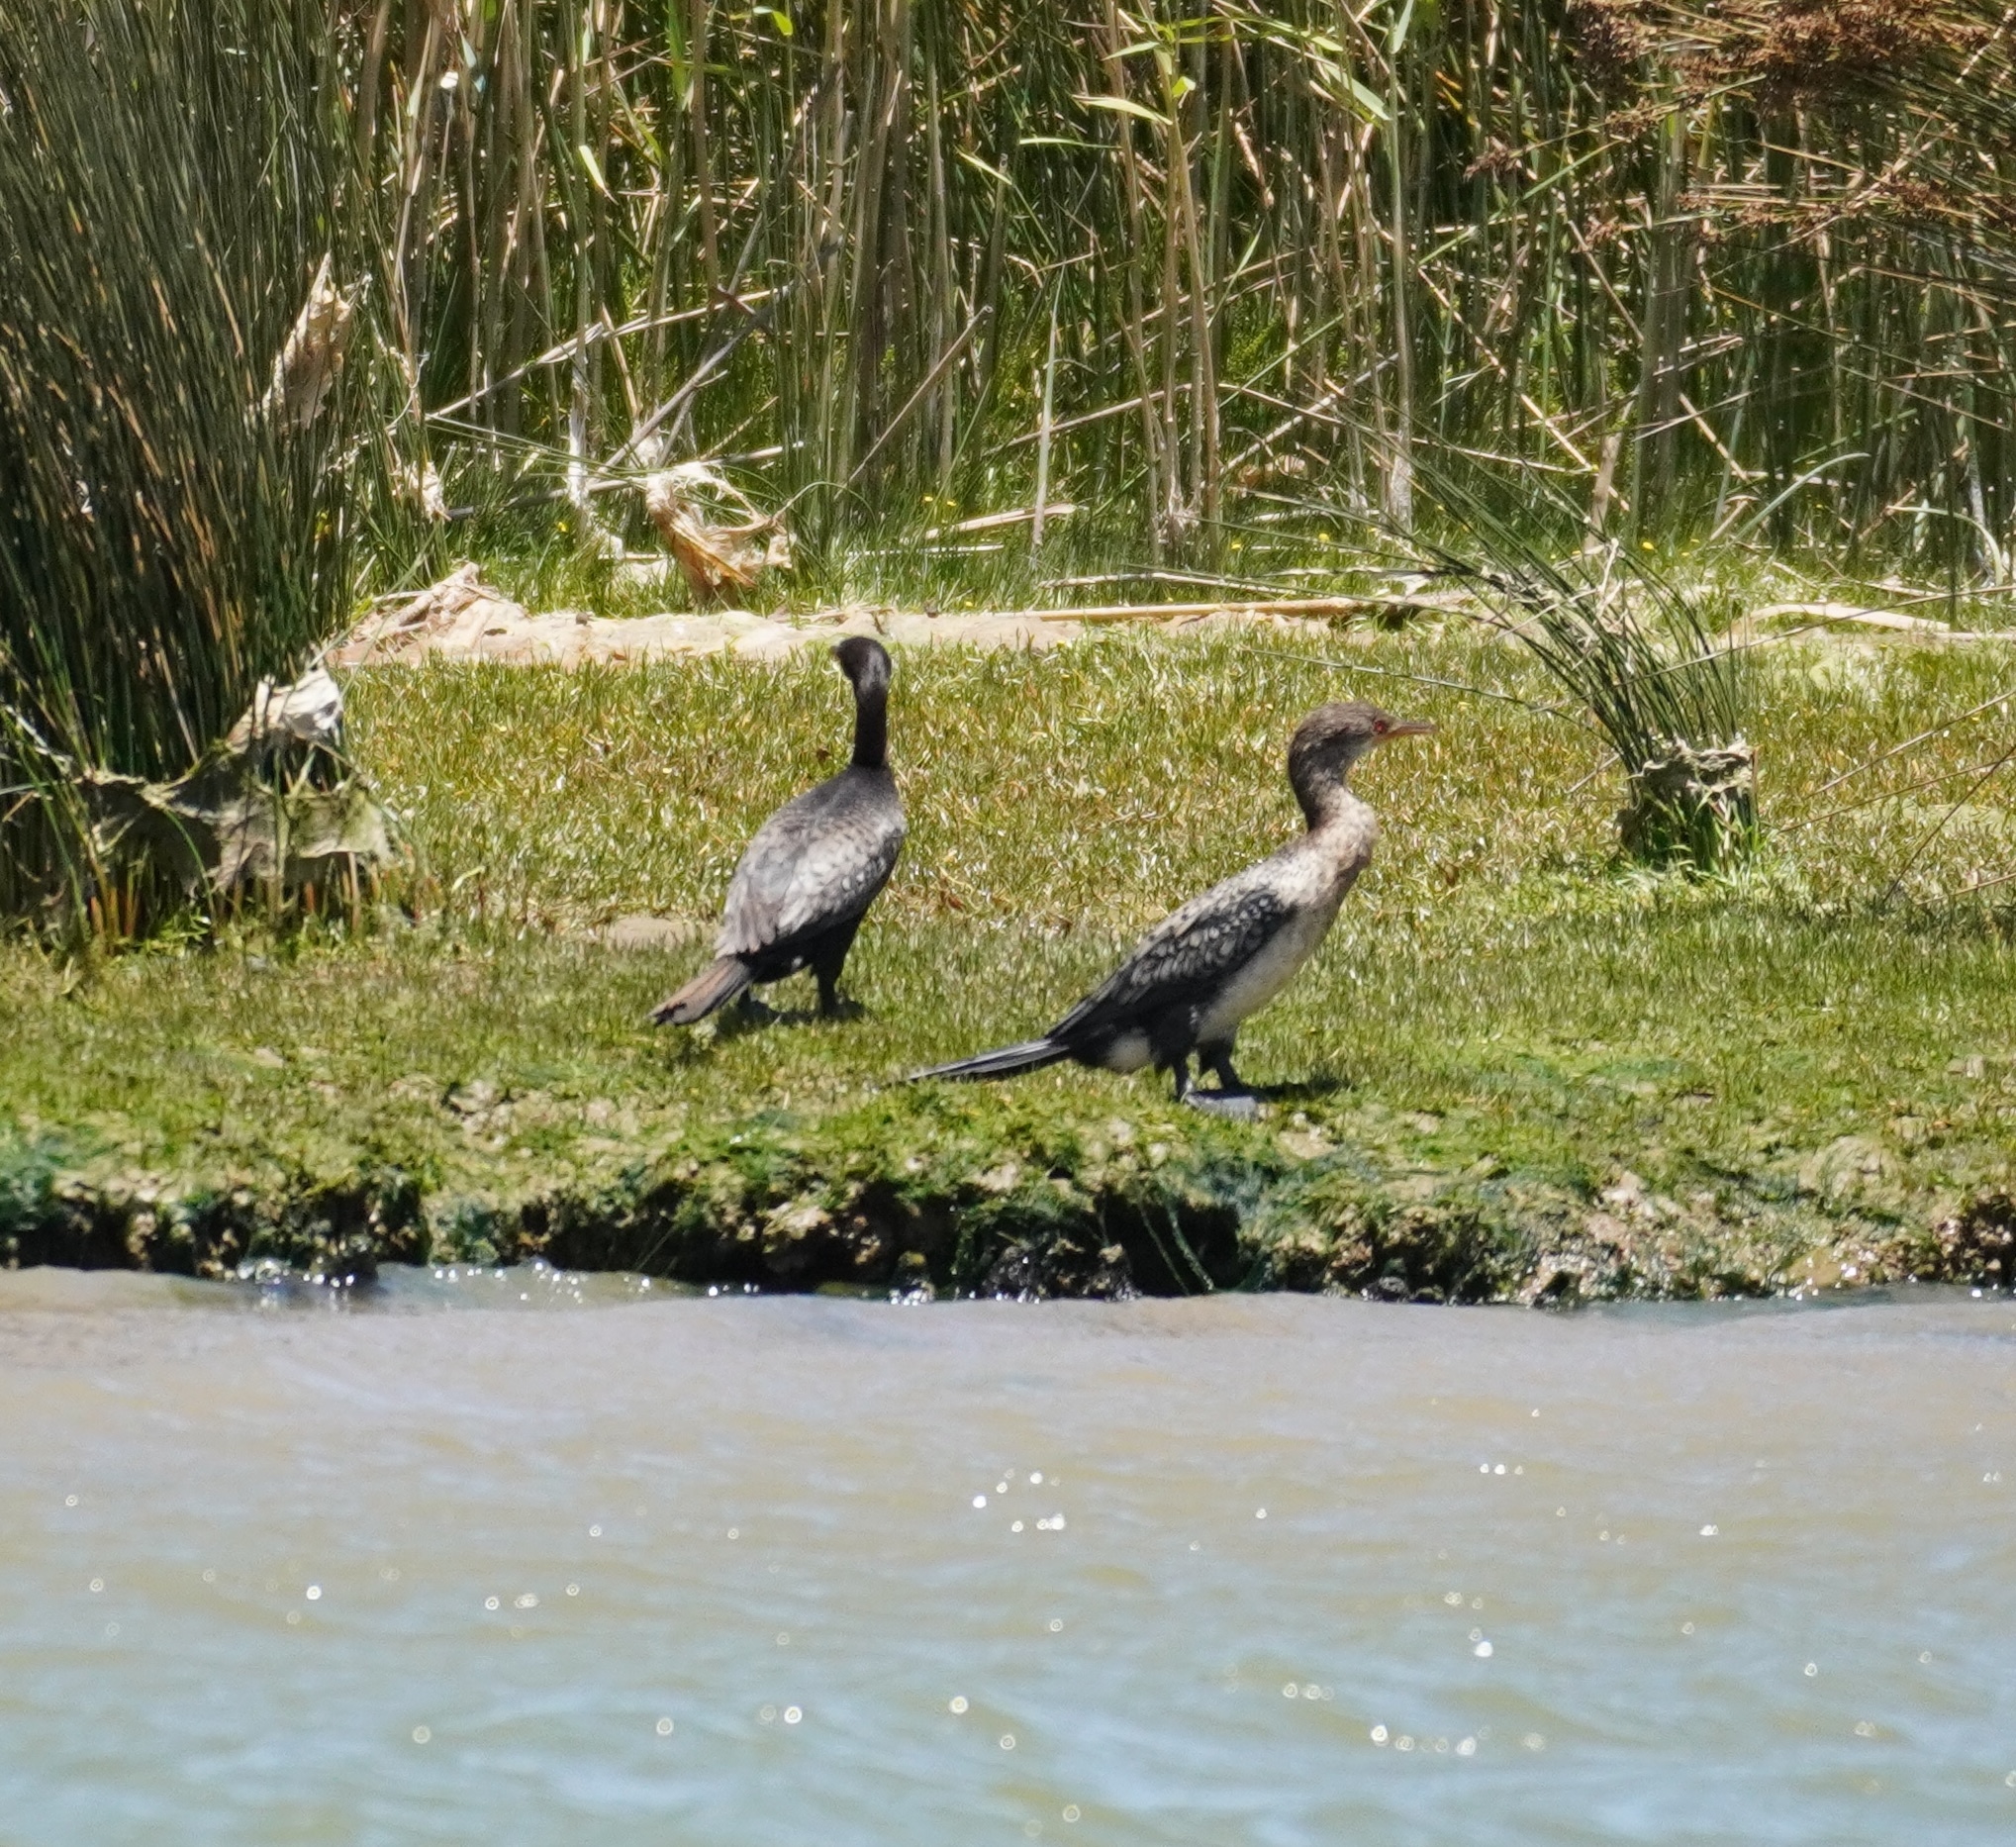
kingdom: Animalia
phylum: Chordata
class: Aves
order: Suliformes
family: Phalacrocoracidae
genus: Microcarbo
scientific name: Microcarbo africanus
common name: Long-tailed cormorant
